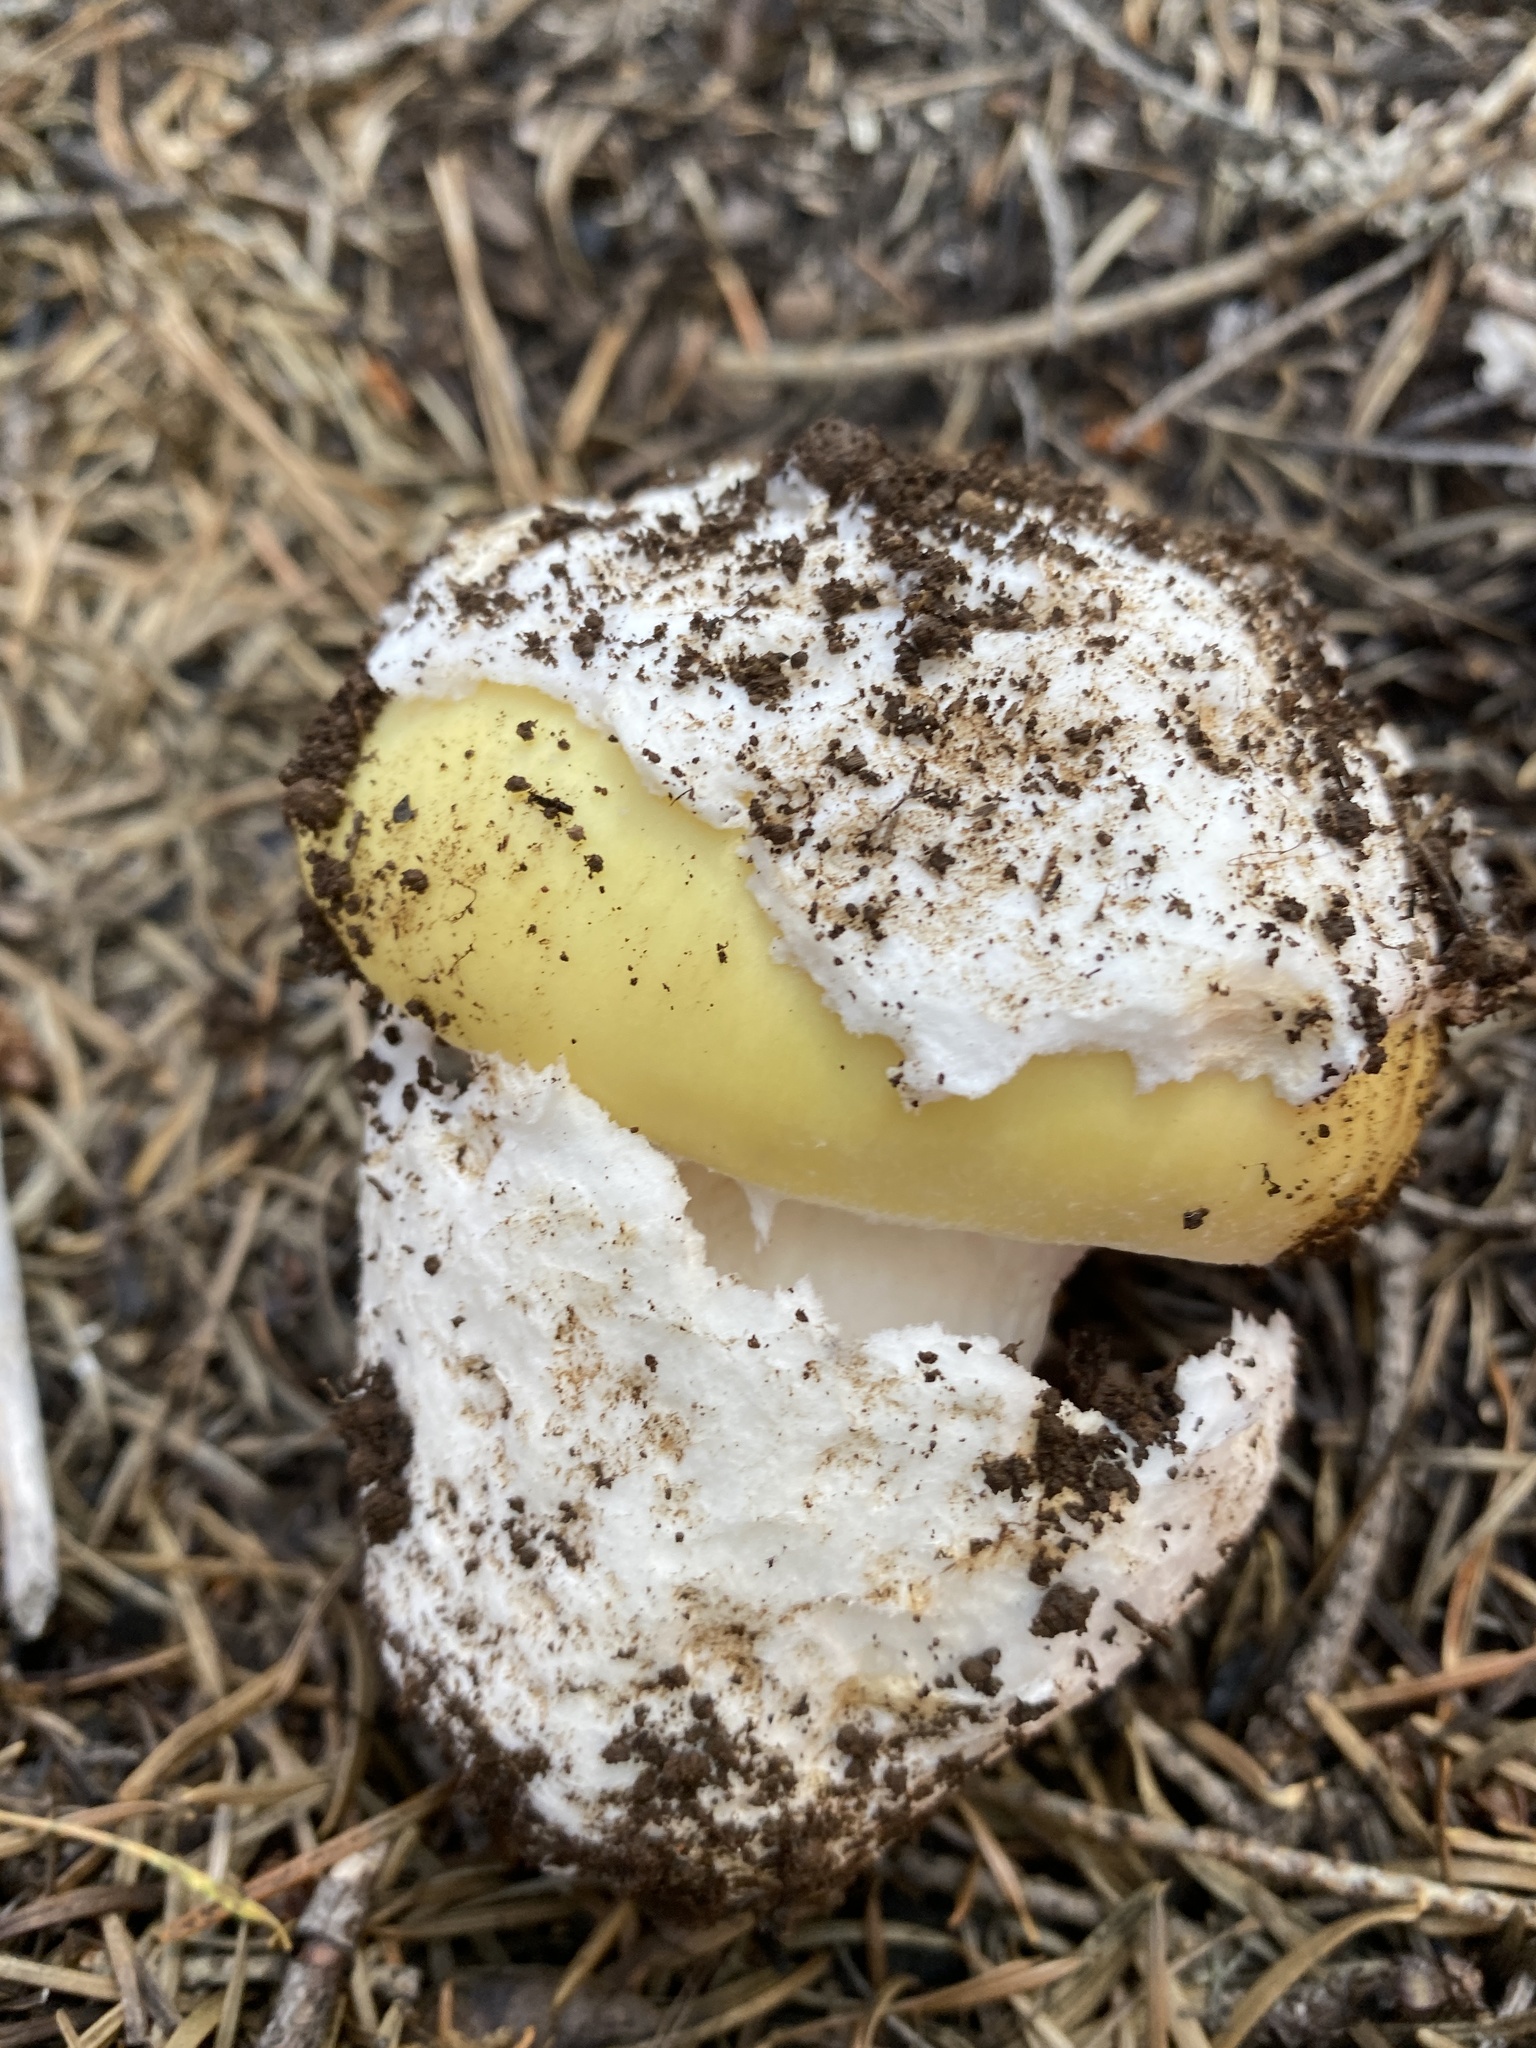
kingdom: Fungi
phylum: Basidiomycota
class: Agaricomycetes
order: Agaricales
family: Amanitaceae
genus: Amanita
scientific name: Amanita vernicoccora
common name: Spring coccora
